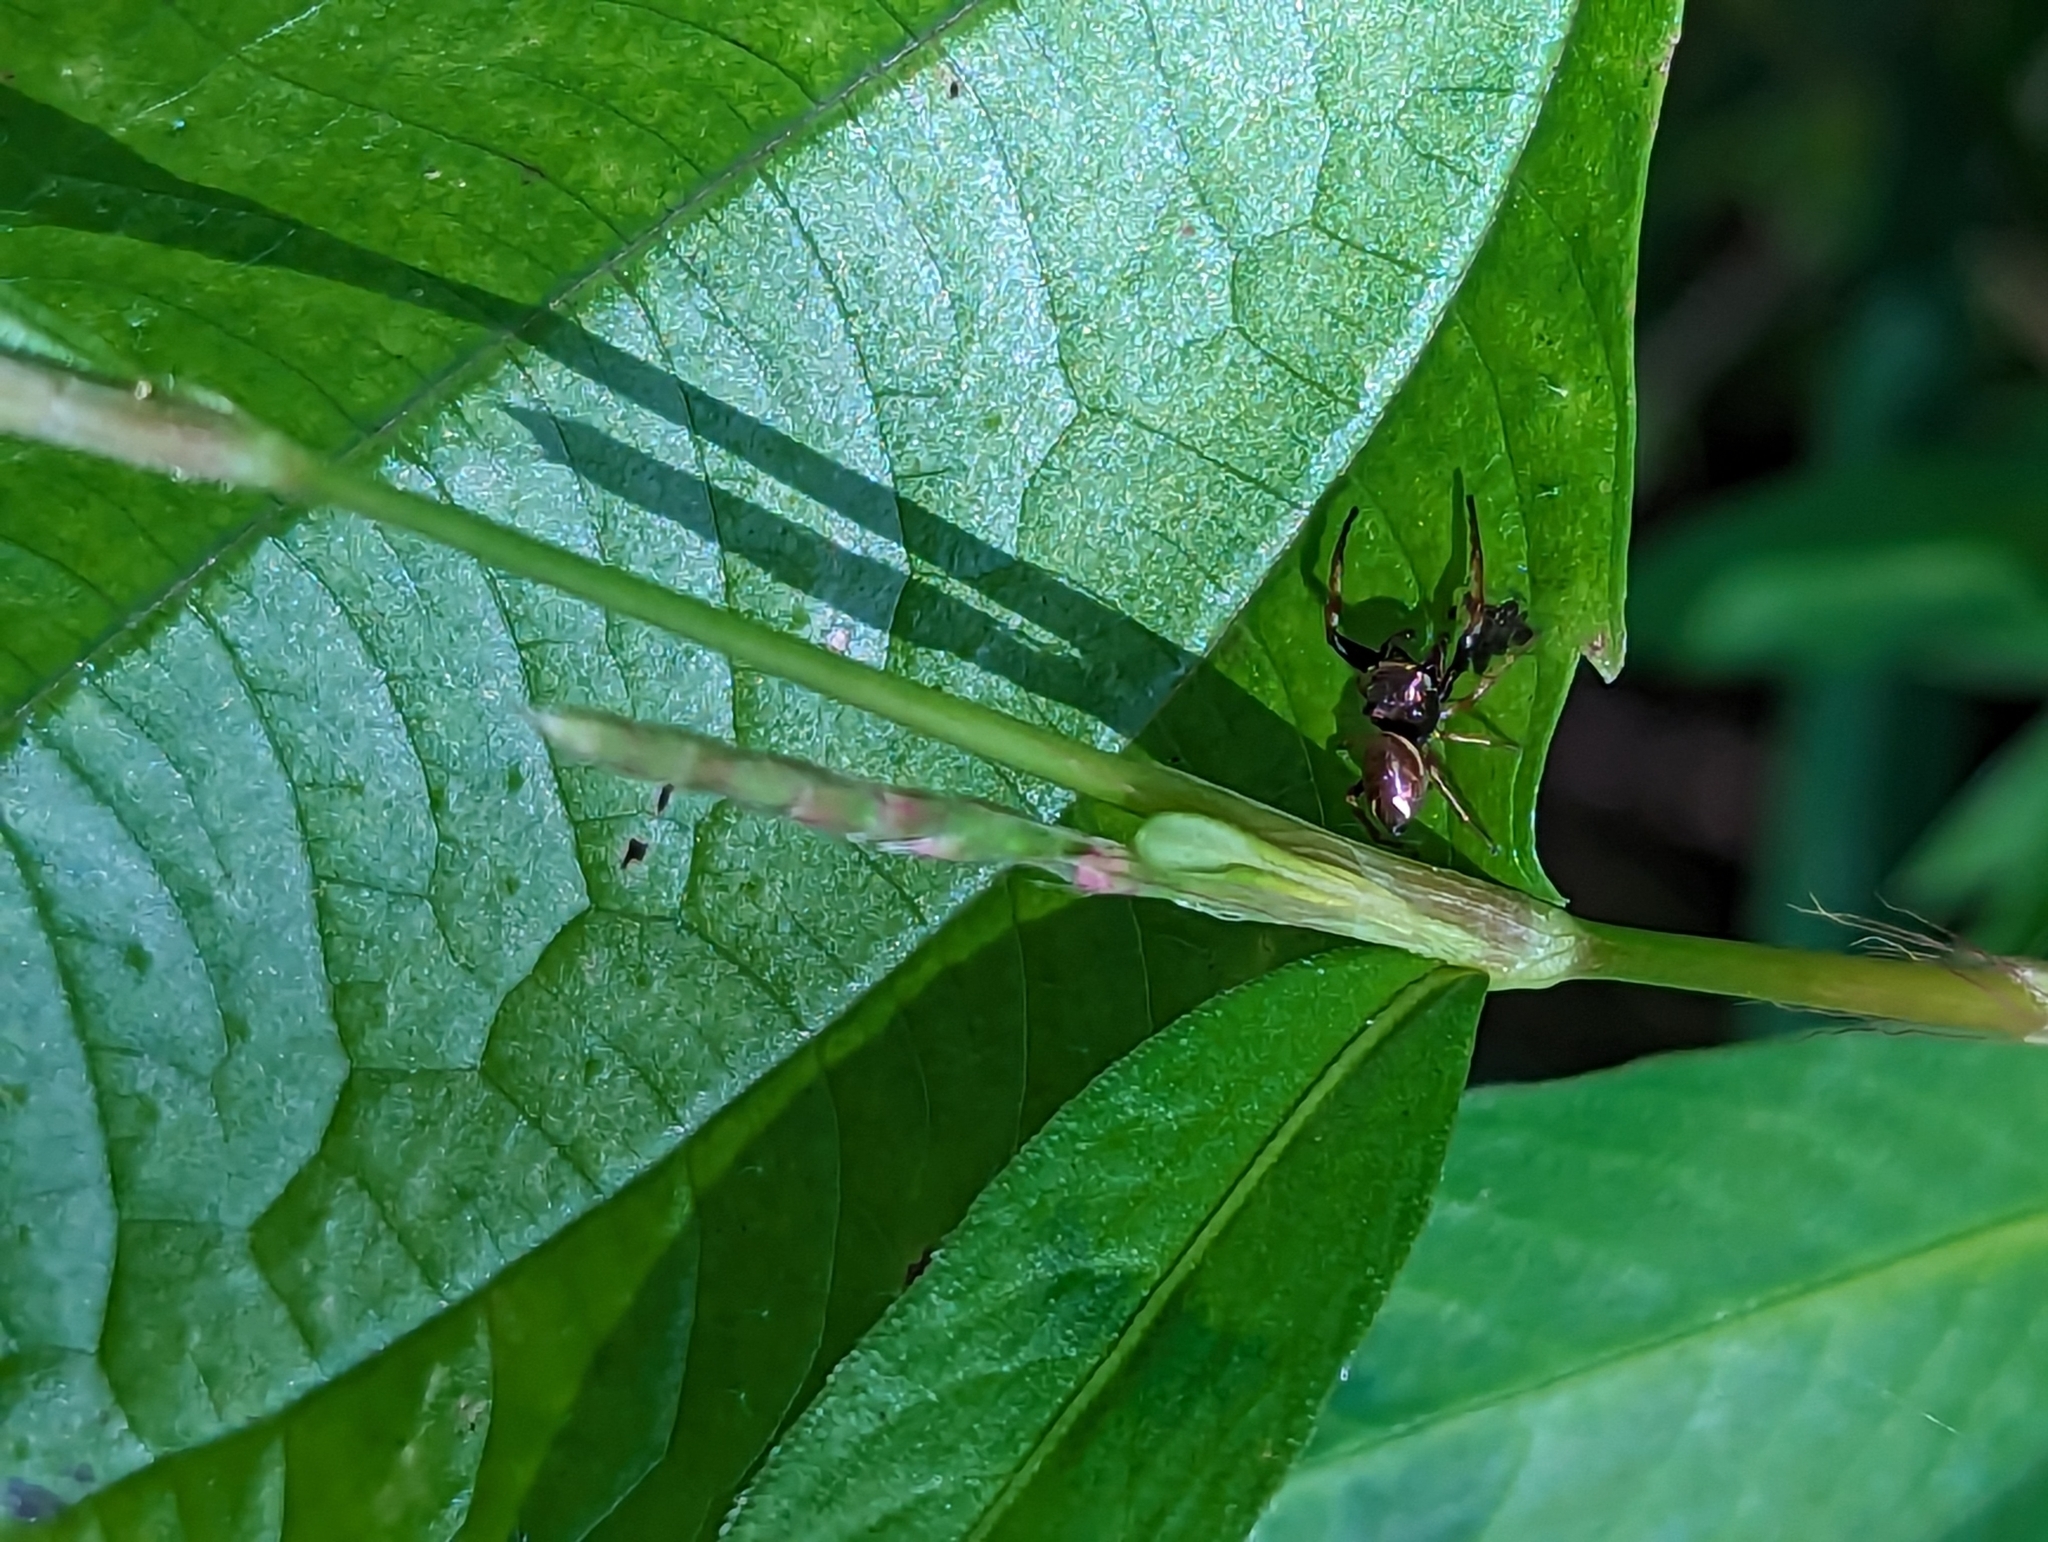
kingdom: Plantae
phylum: Tracheophyta
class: Magnoliopsida
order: Caryophyllales
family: Polygonaceae
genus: Persicaria
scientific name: Persicaria longiseta
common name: Bristly lady's-thumb
